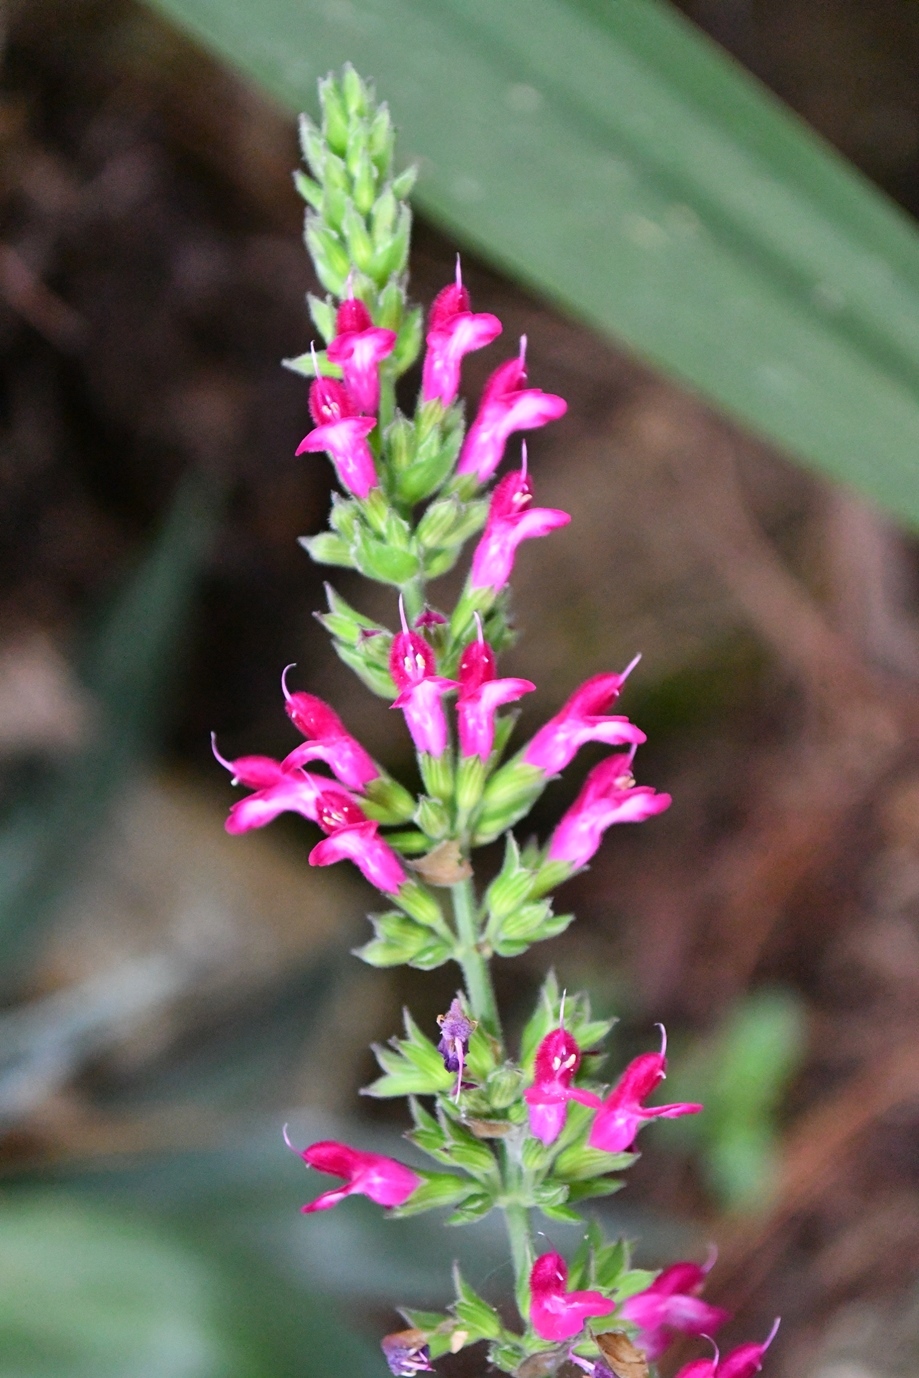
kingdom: Plantae
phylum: Tracheophyta
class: Magnoliopsida
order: Lamiales
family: Lamiaceae
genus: Salvia
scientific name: Salvia chiapensis
